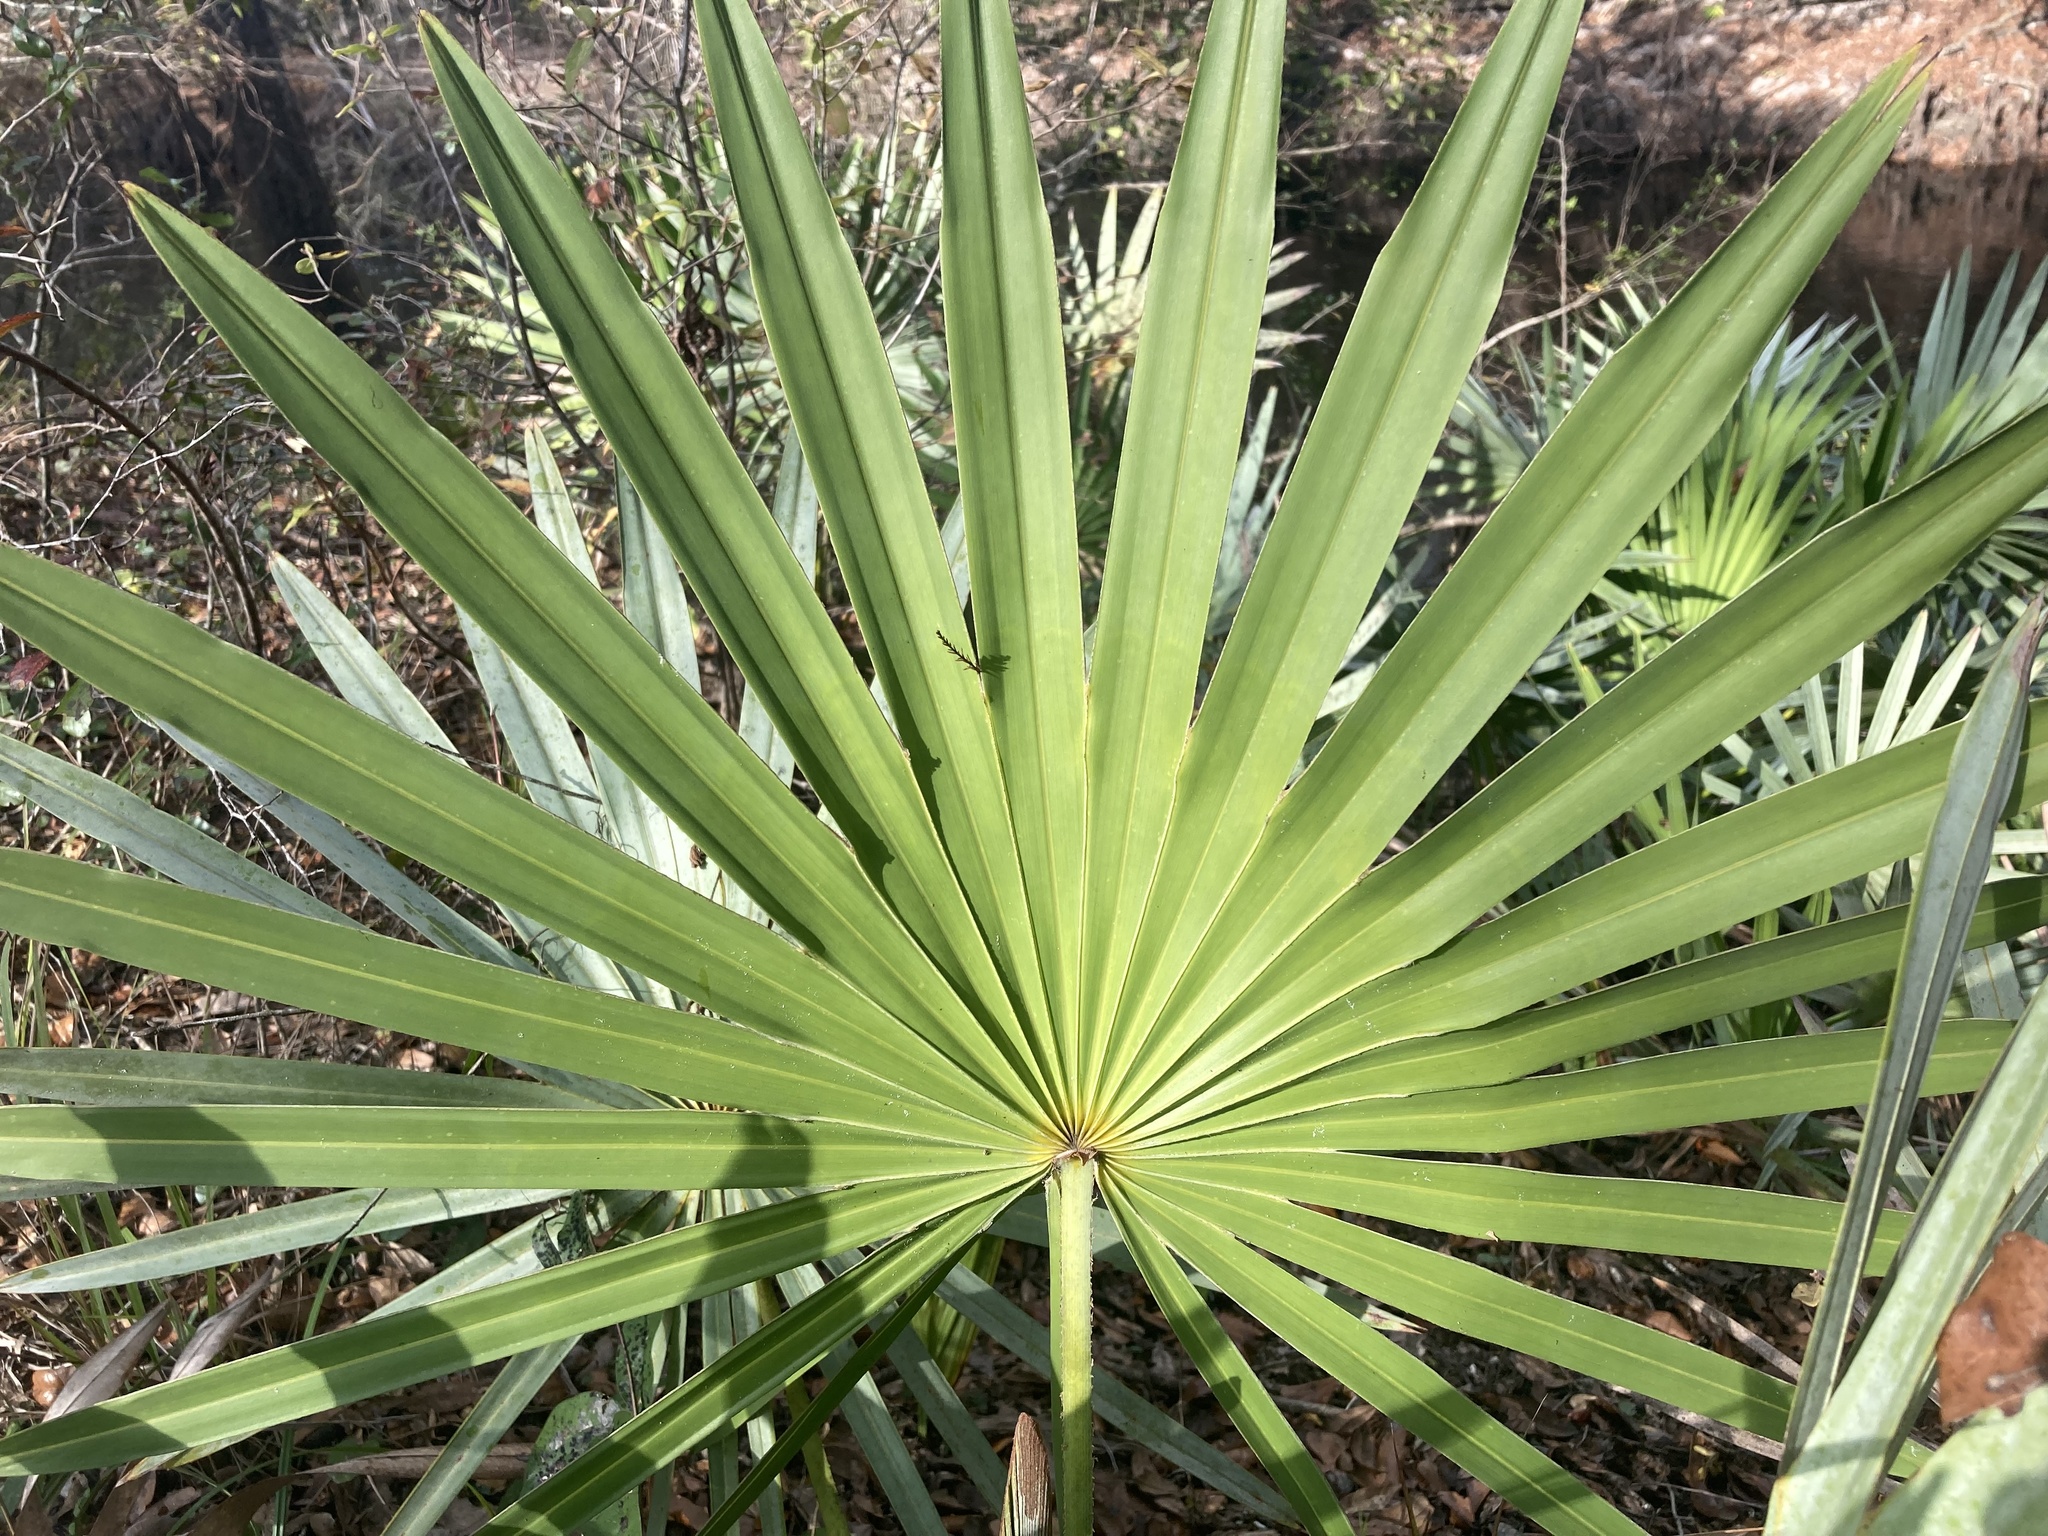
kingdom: Plantae
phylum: Tracheophyta
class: Liliopsida
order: Arecales
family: Arecaceae
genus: Serenoa
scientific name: Serenoa repens
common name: Saw-palmetto
